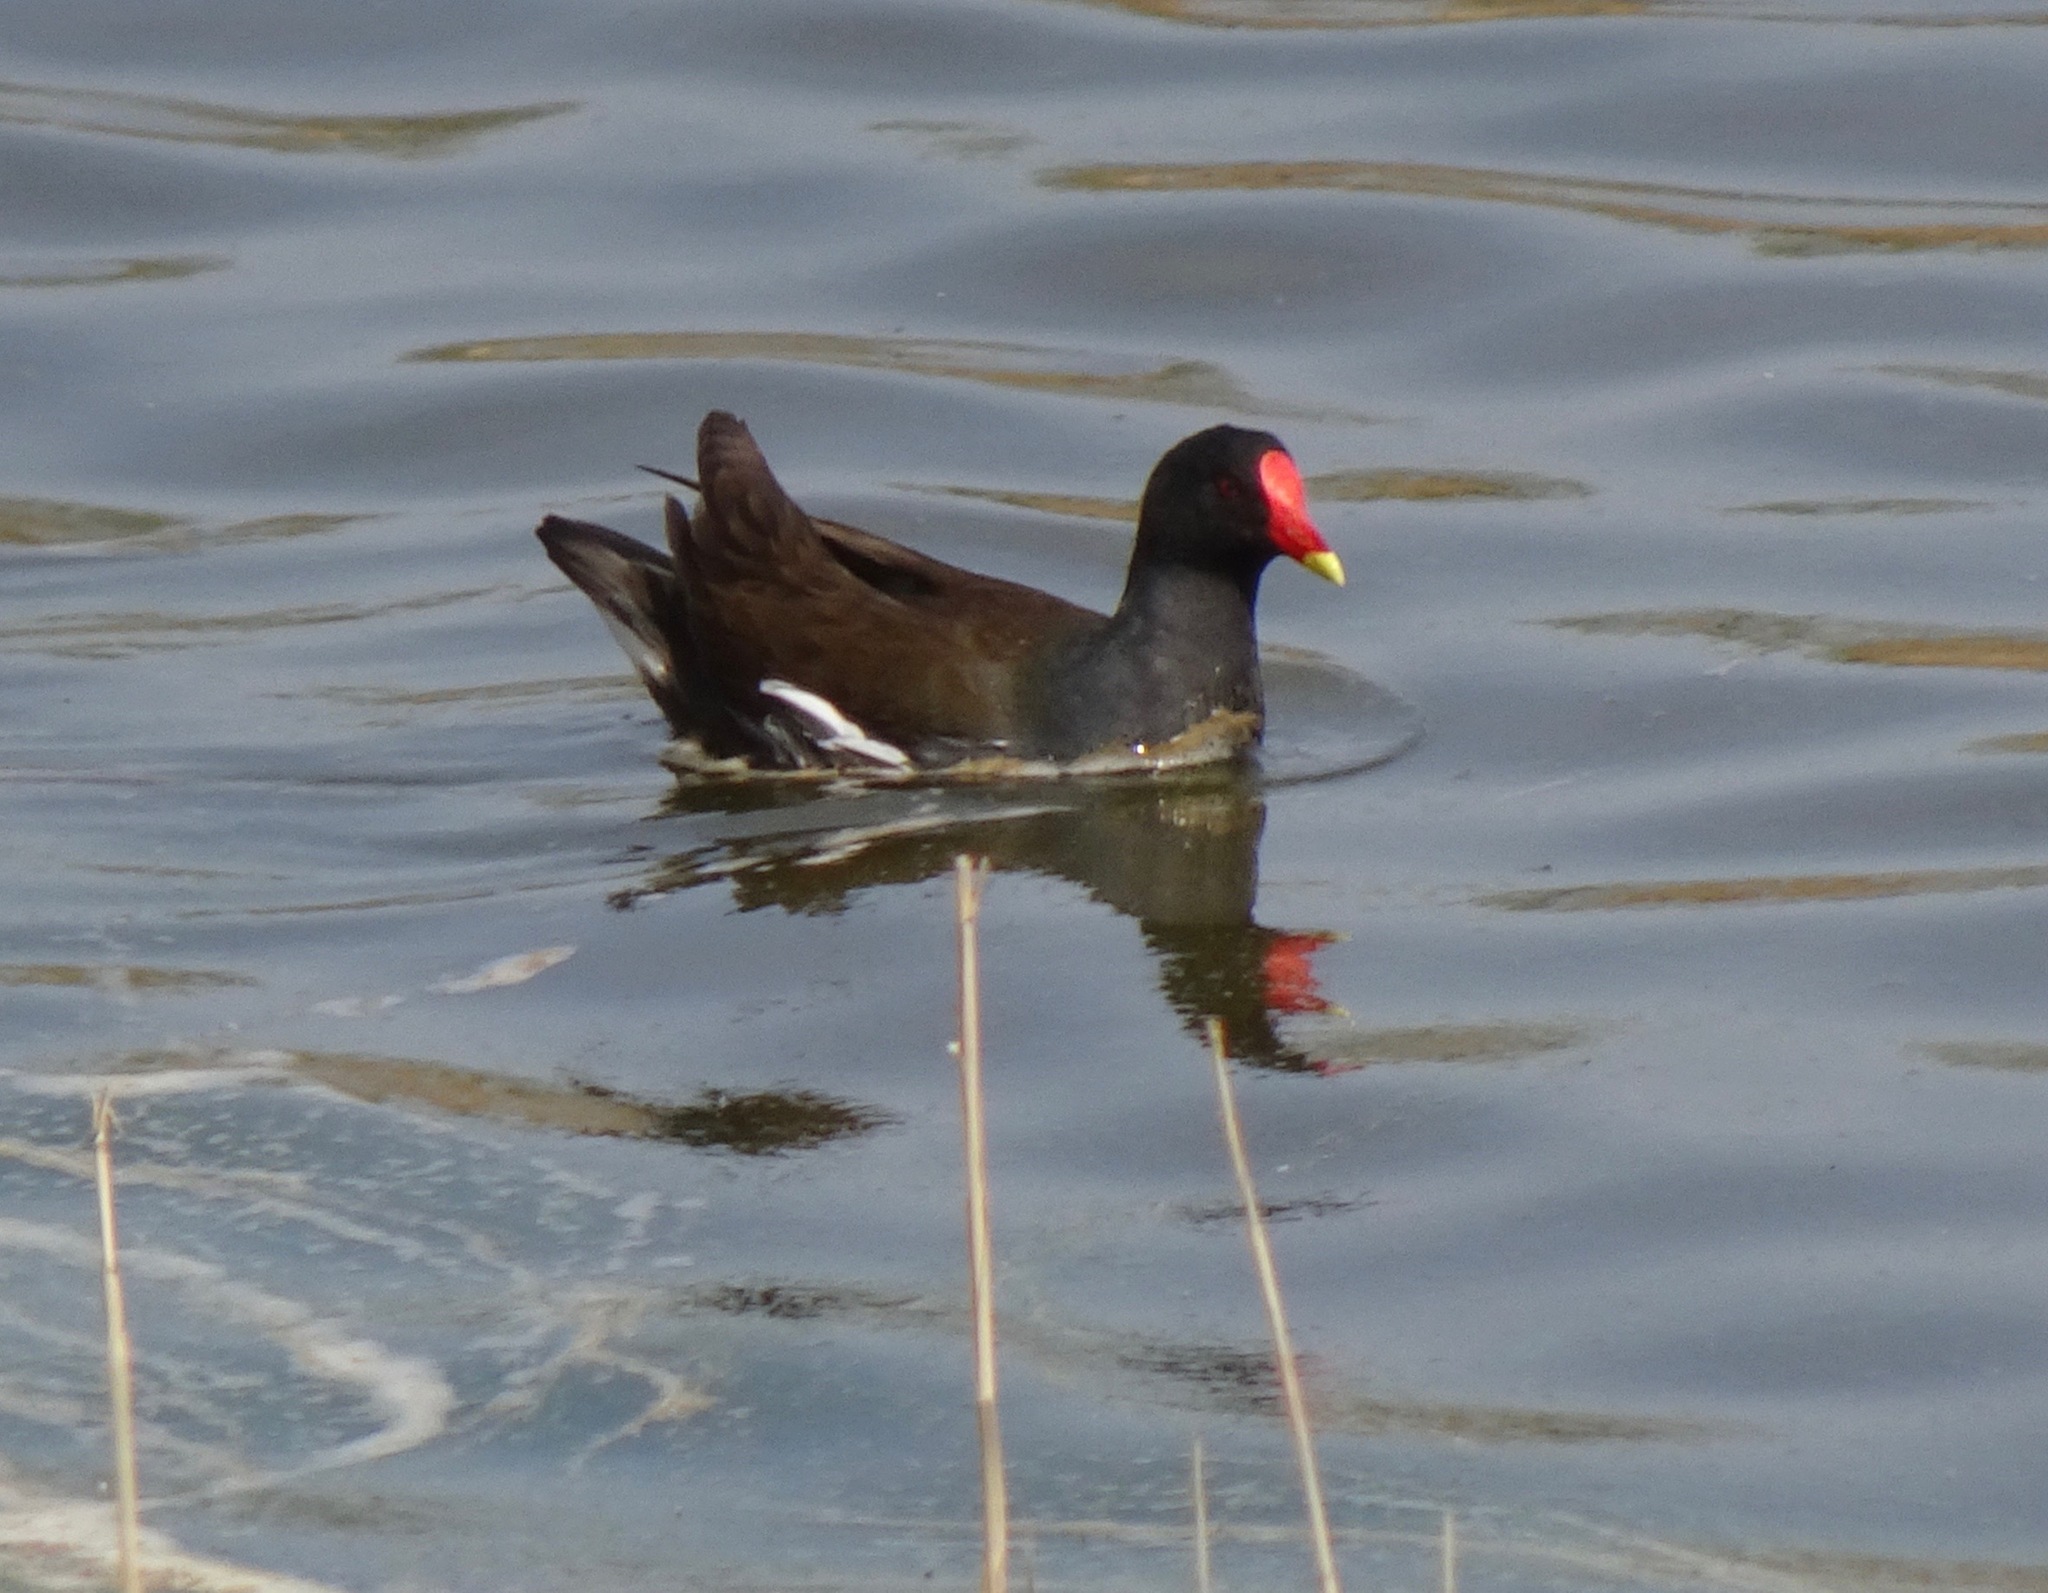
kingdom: Animalia
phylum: Chordata
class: Aves
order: Gruiformes
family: Rallidae
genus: Gallinula
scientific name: Gallinula chloropus
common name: Common moorhen
